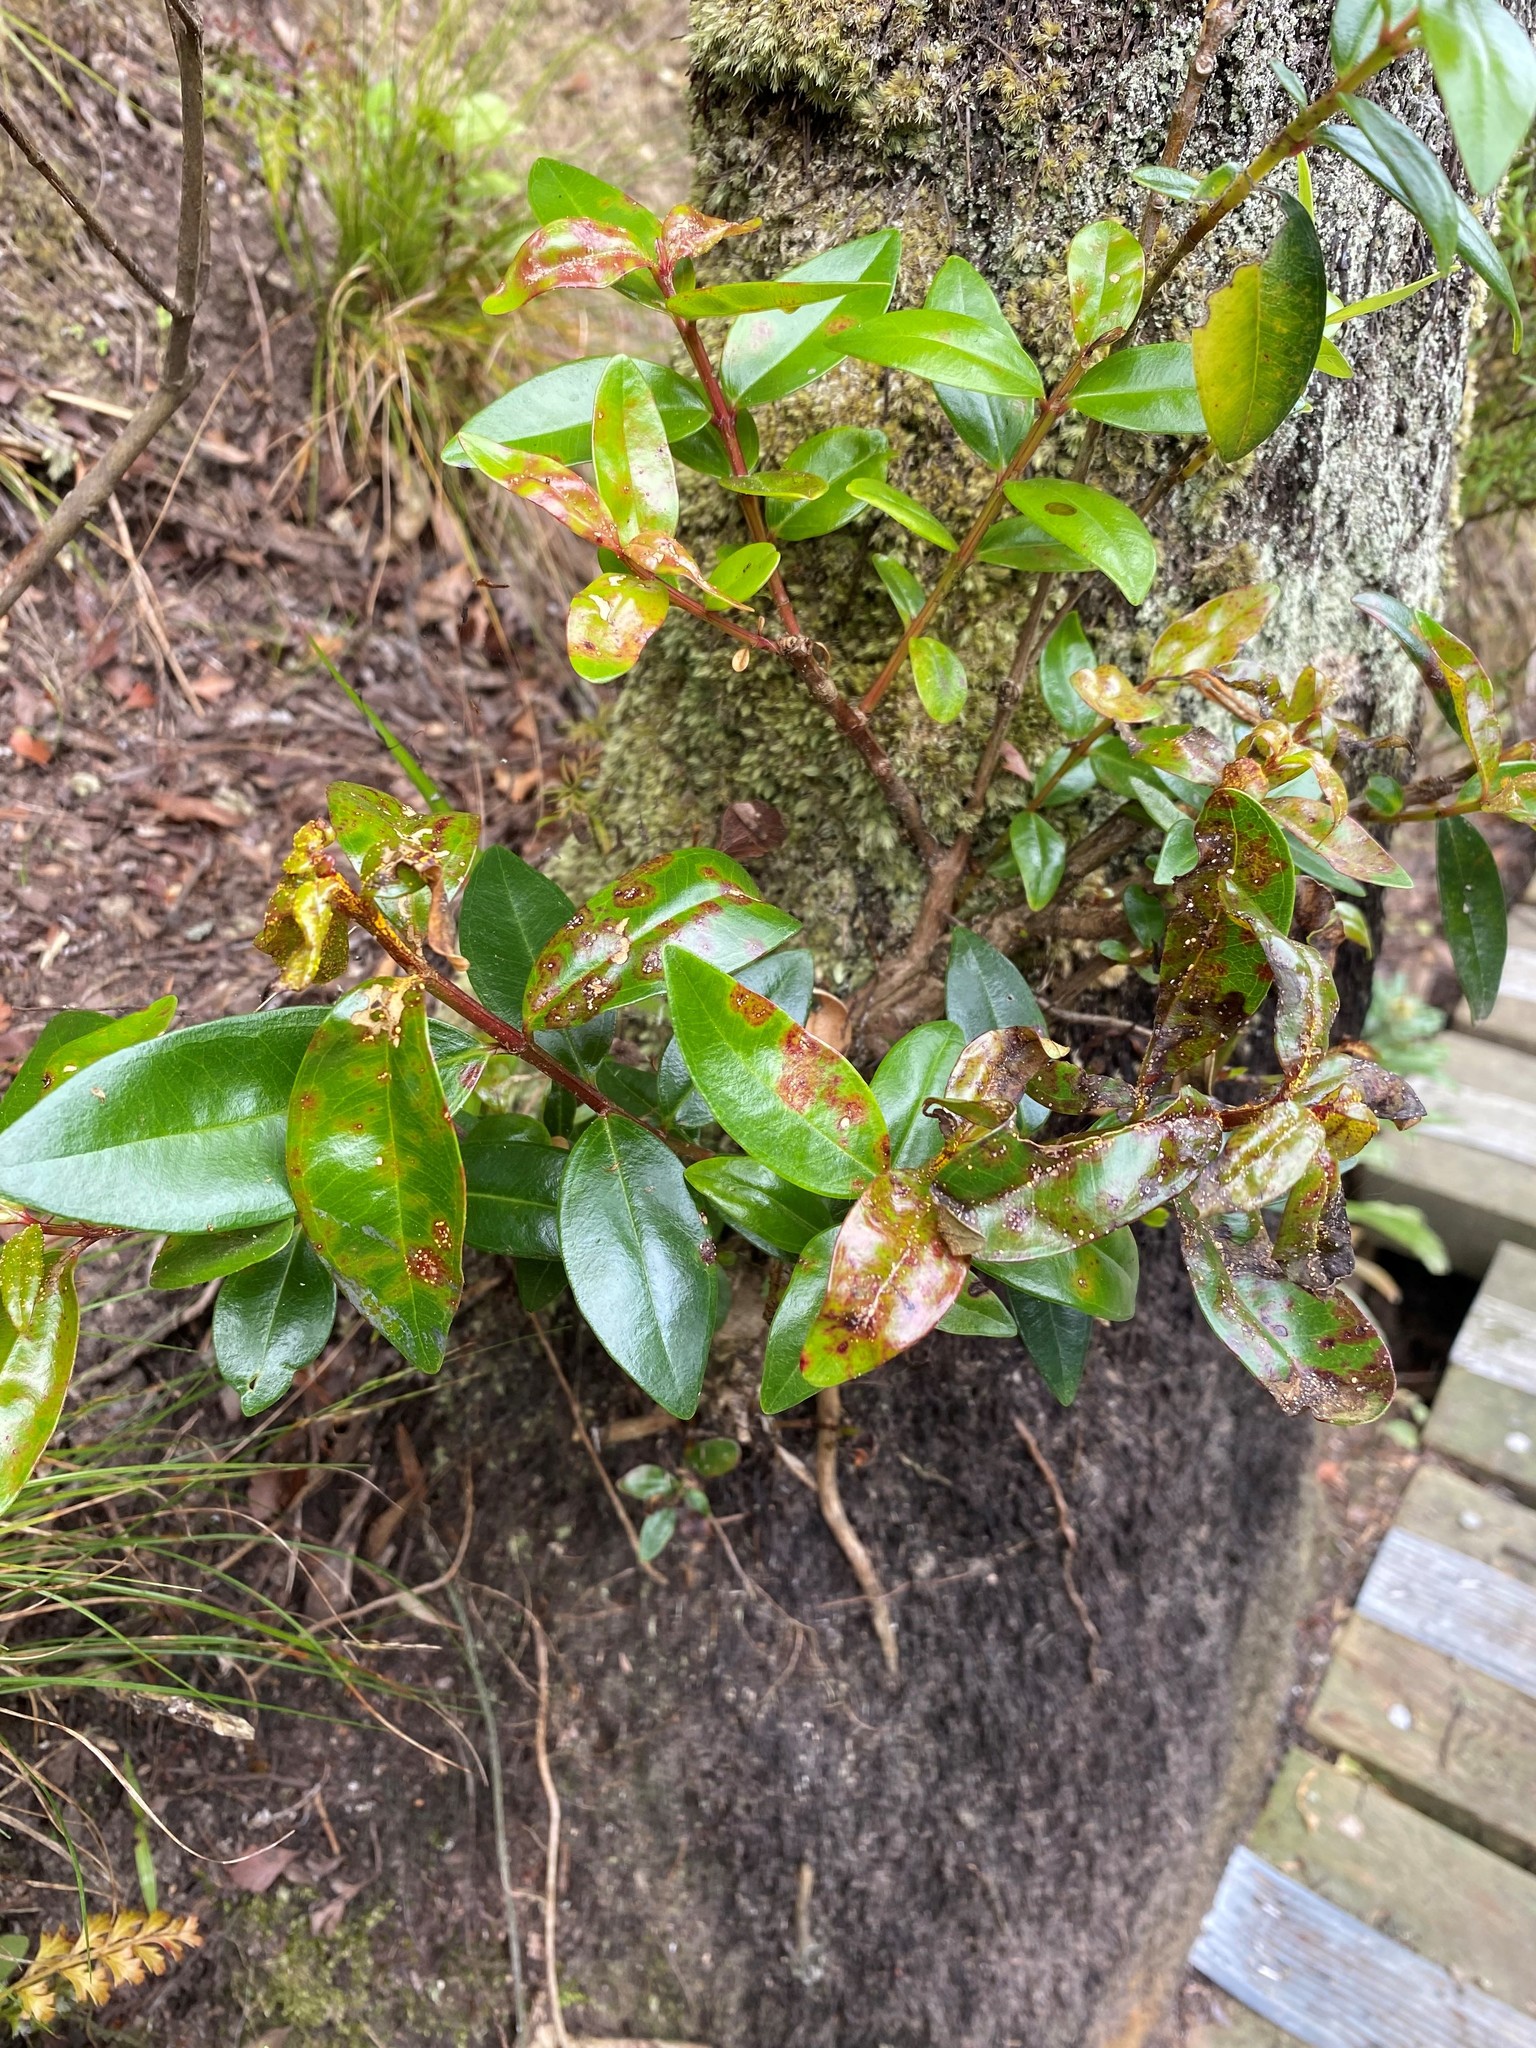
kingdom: Fungi
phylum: Basidiomycota
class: Pucciniomycetes
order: Pucciniales
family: Sphaerophragmiaceae
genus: Austropuccinia
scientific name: Austropuccinia psidii
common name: Myrtle rust
